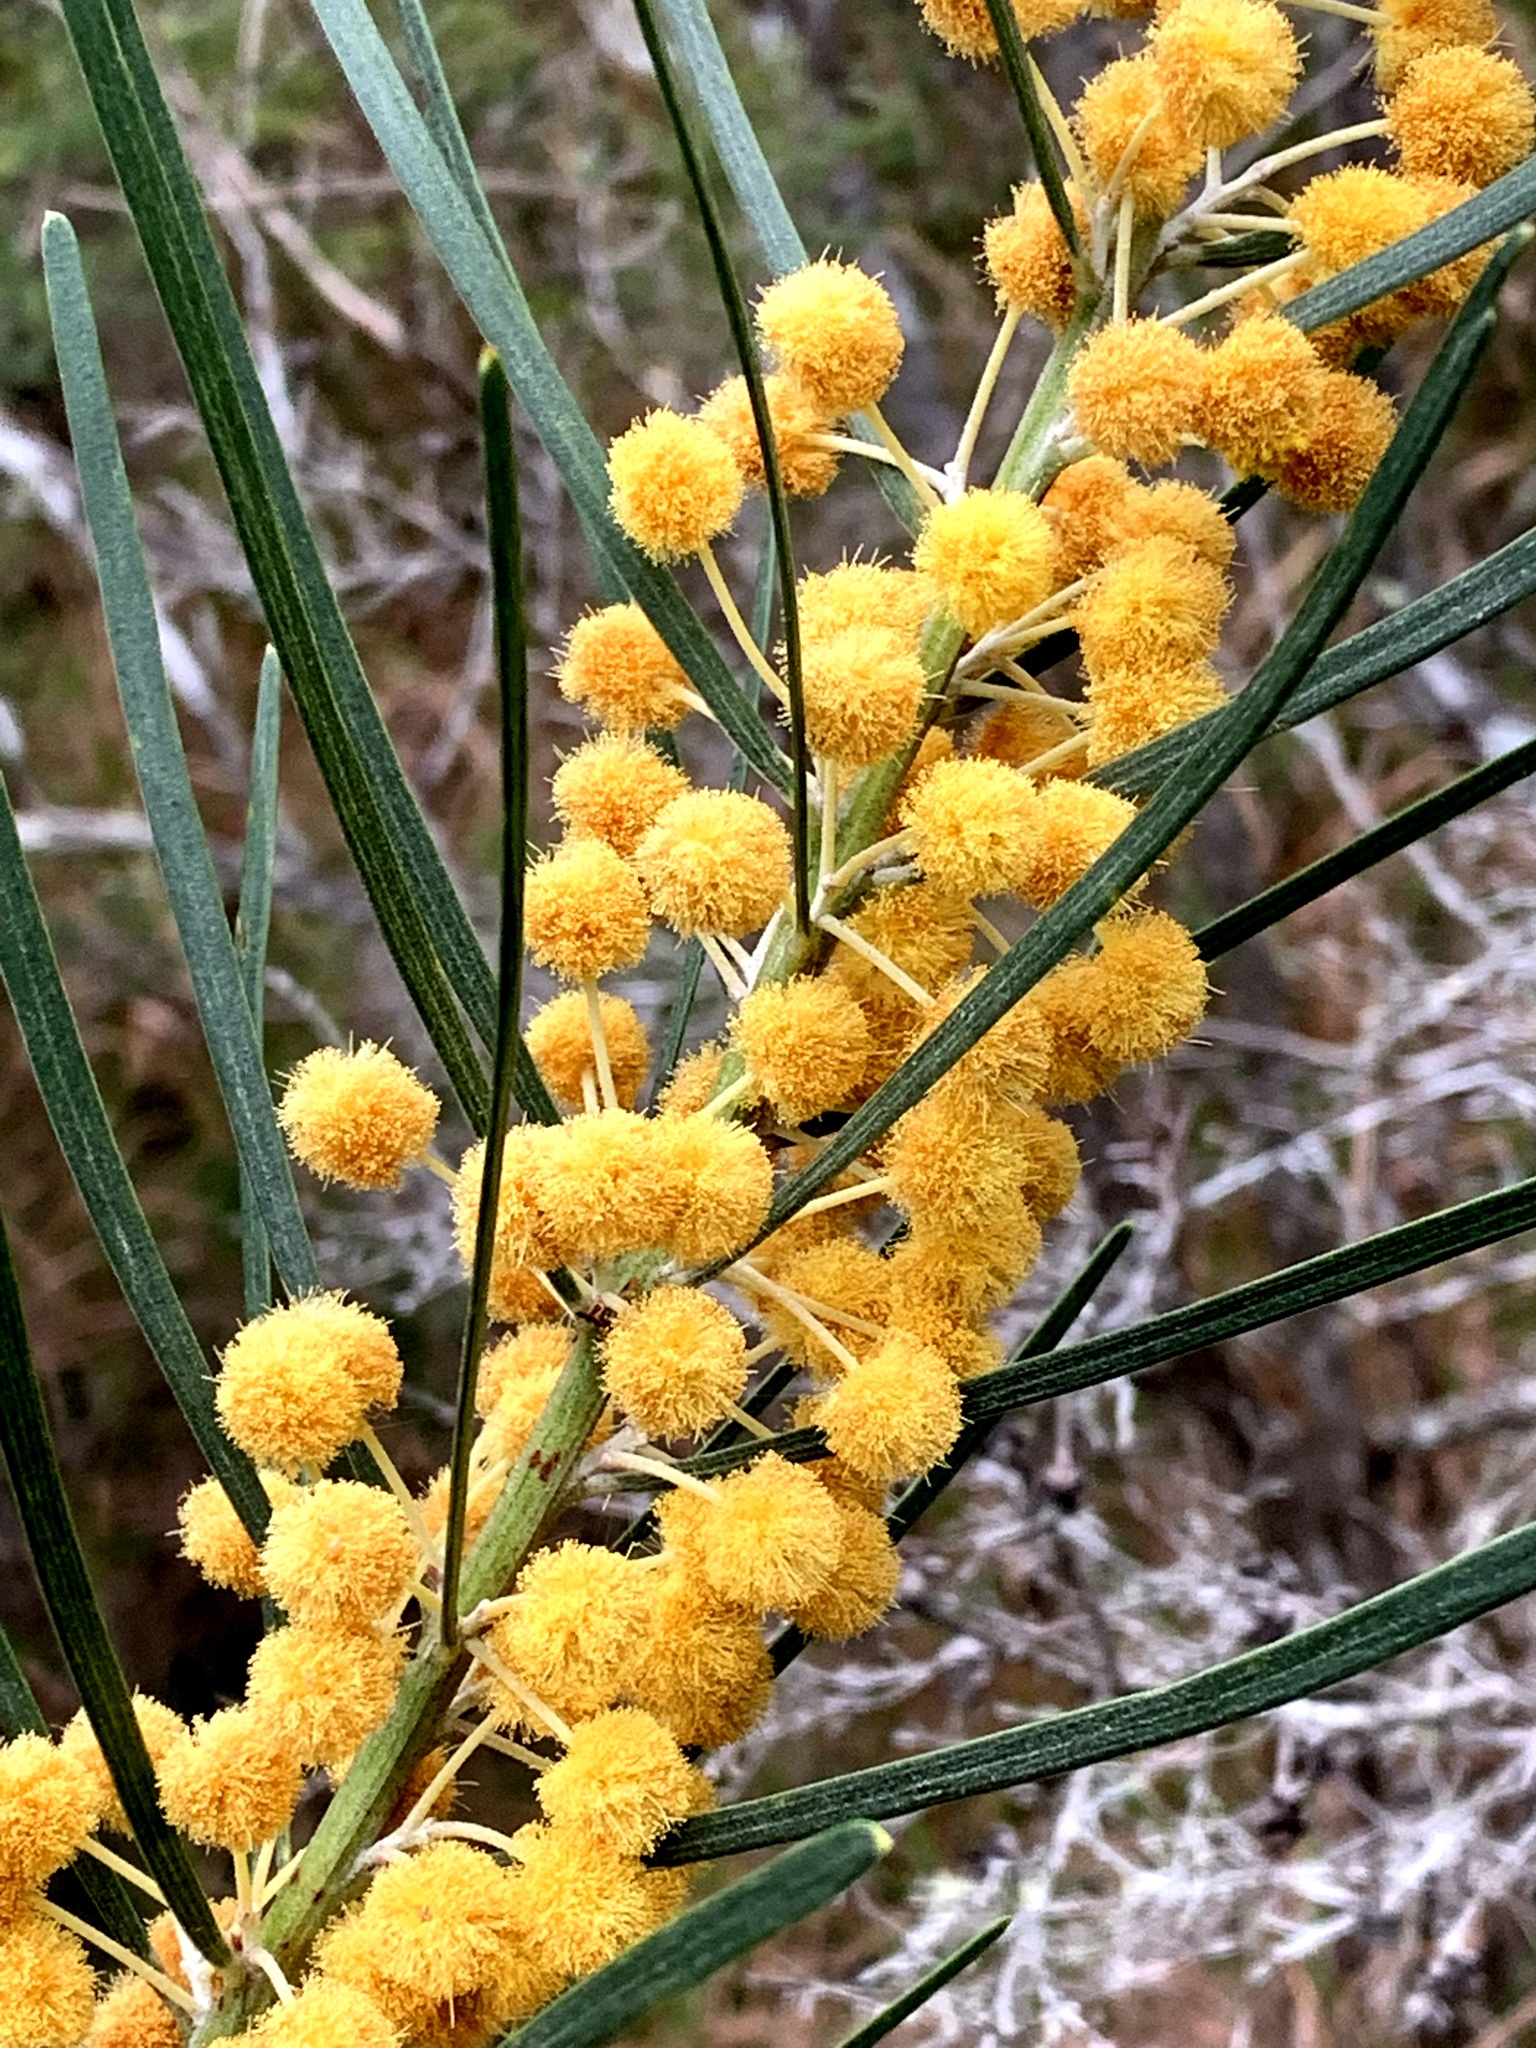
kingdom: Plantae
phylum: Tracheophyta
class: Magnoliopsida
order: Fabales
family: Fabaceae
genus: Acacia
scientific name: Acacia elongata
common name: Swamp wattle
